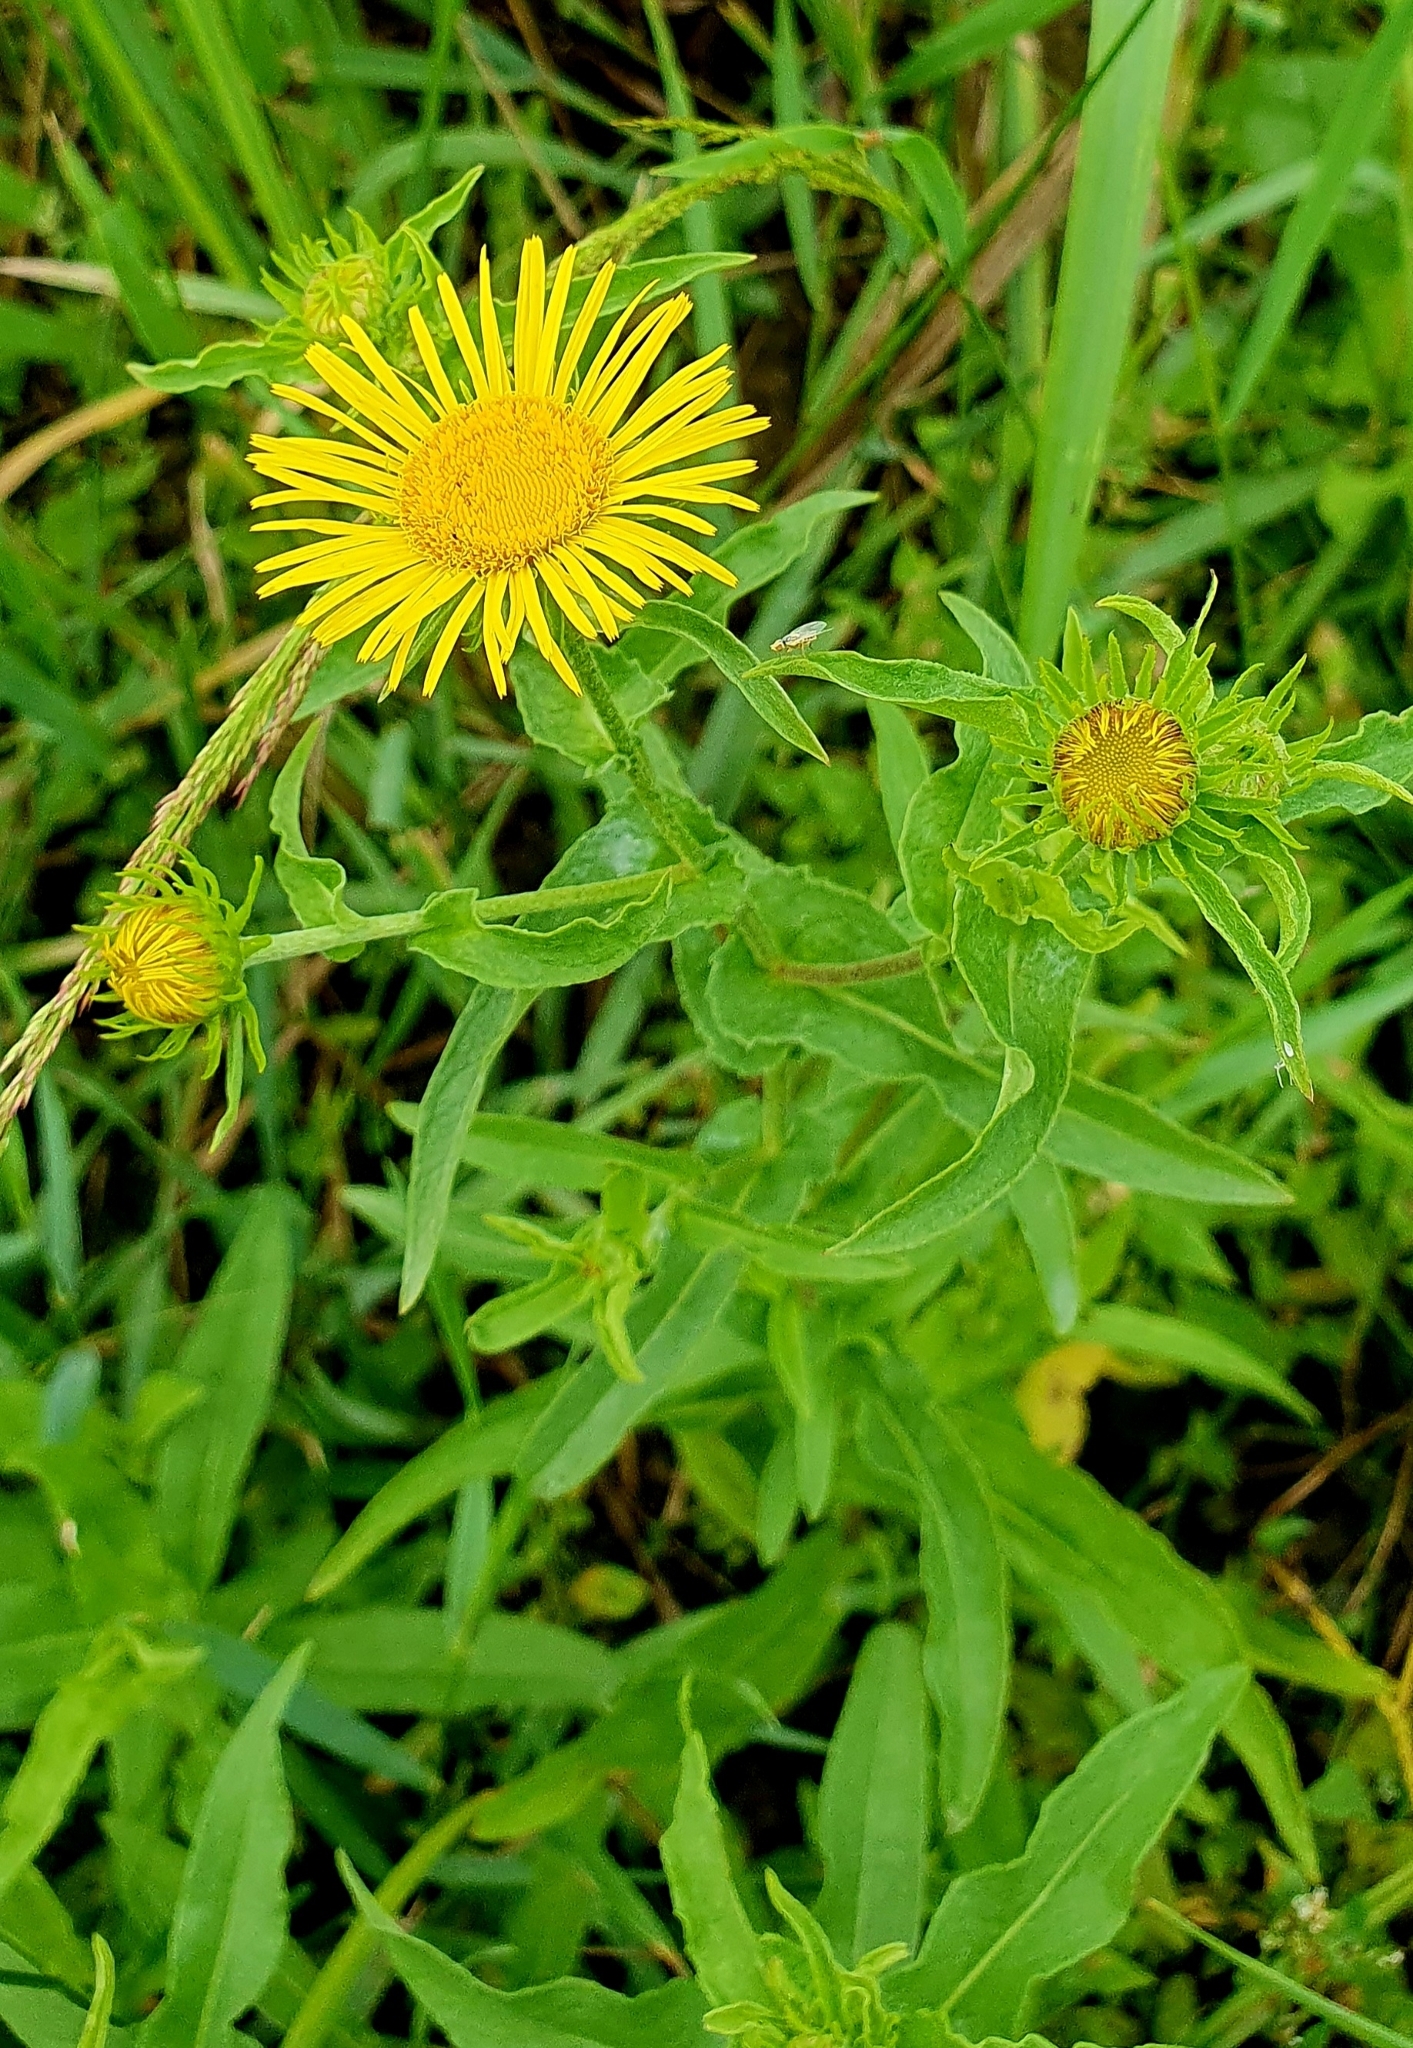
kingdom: Plantae
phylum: Tracheophyta
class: Magnoliopsida
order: Asterales
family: Asteraceae
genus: Pentanema
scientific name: Pentanema britannicum
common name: British elecampane
